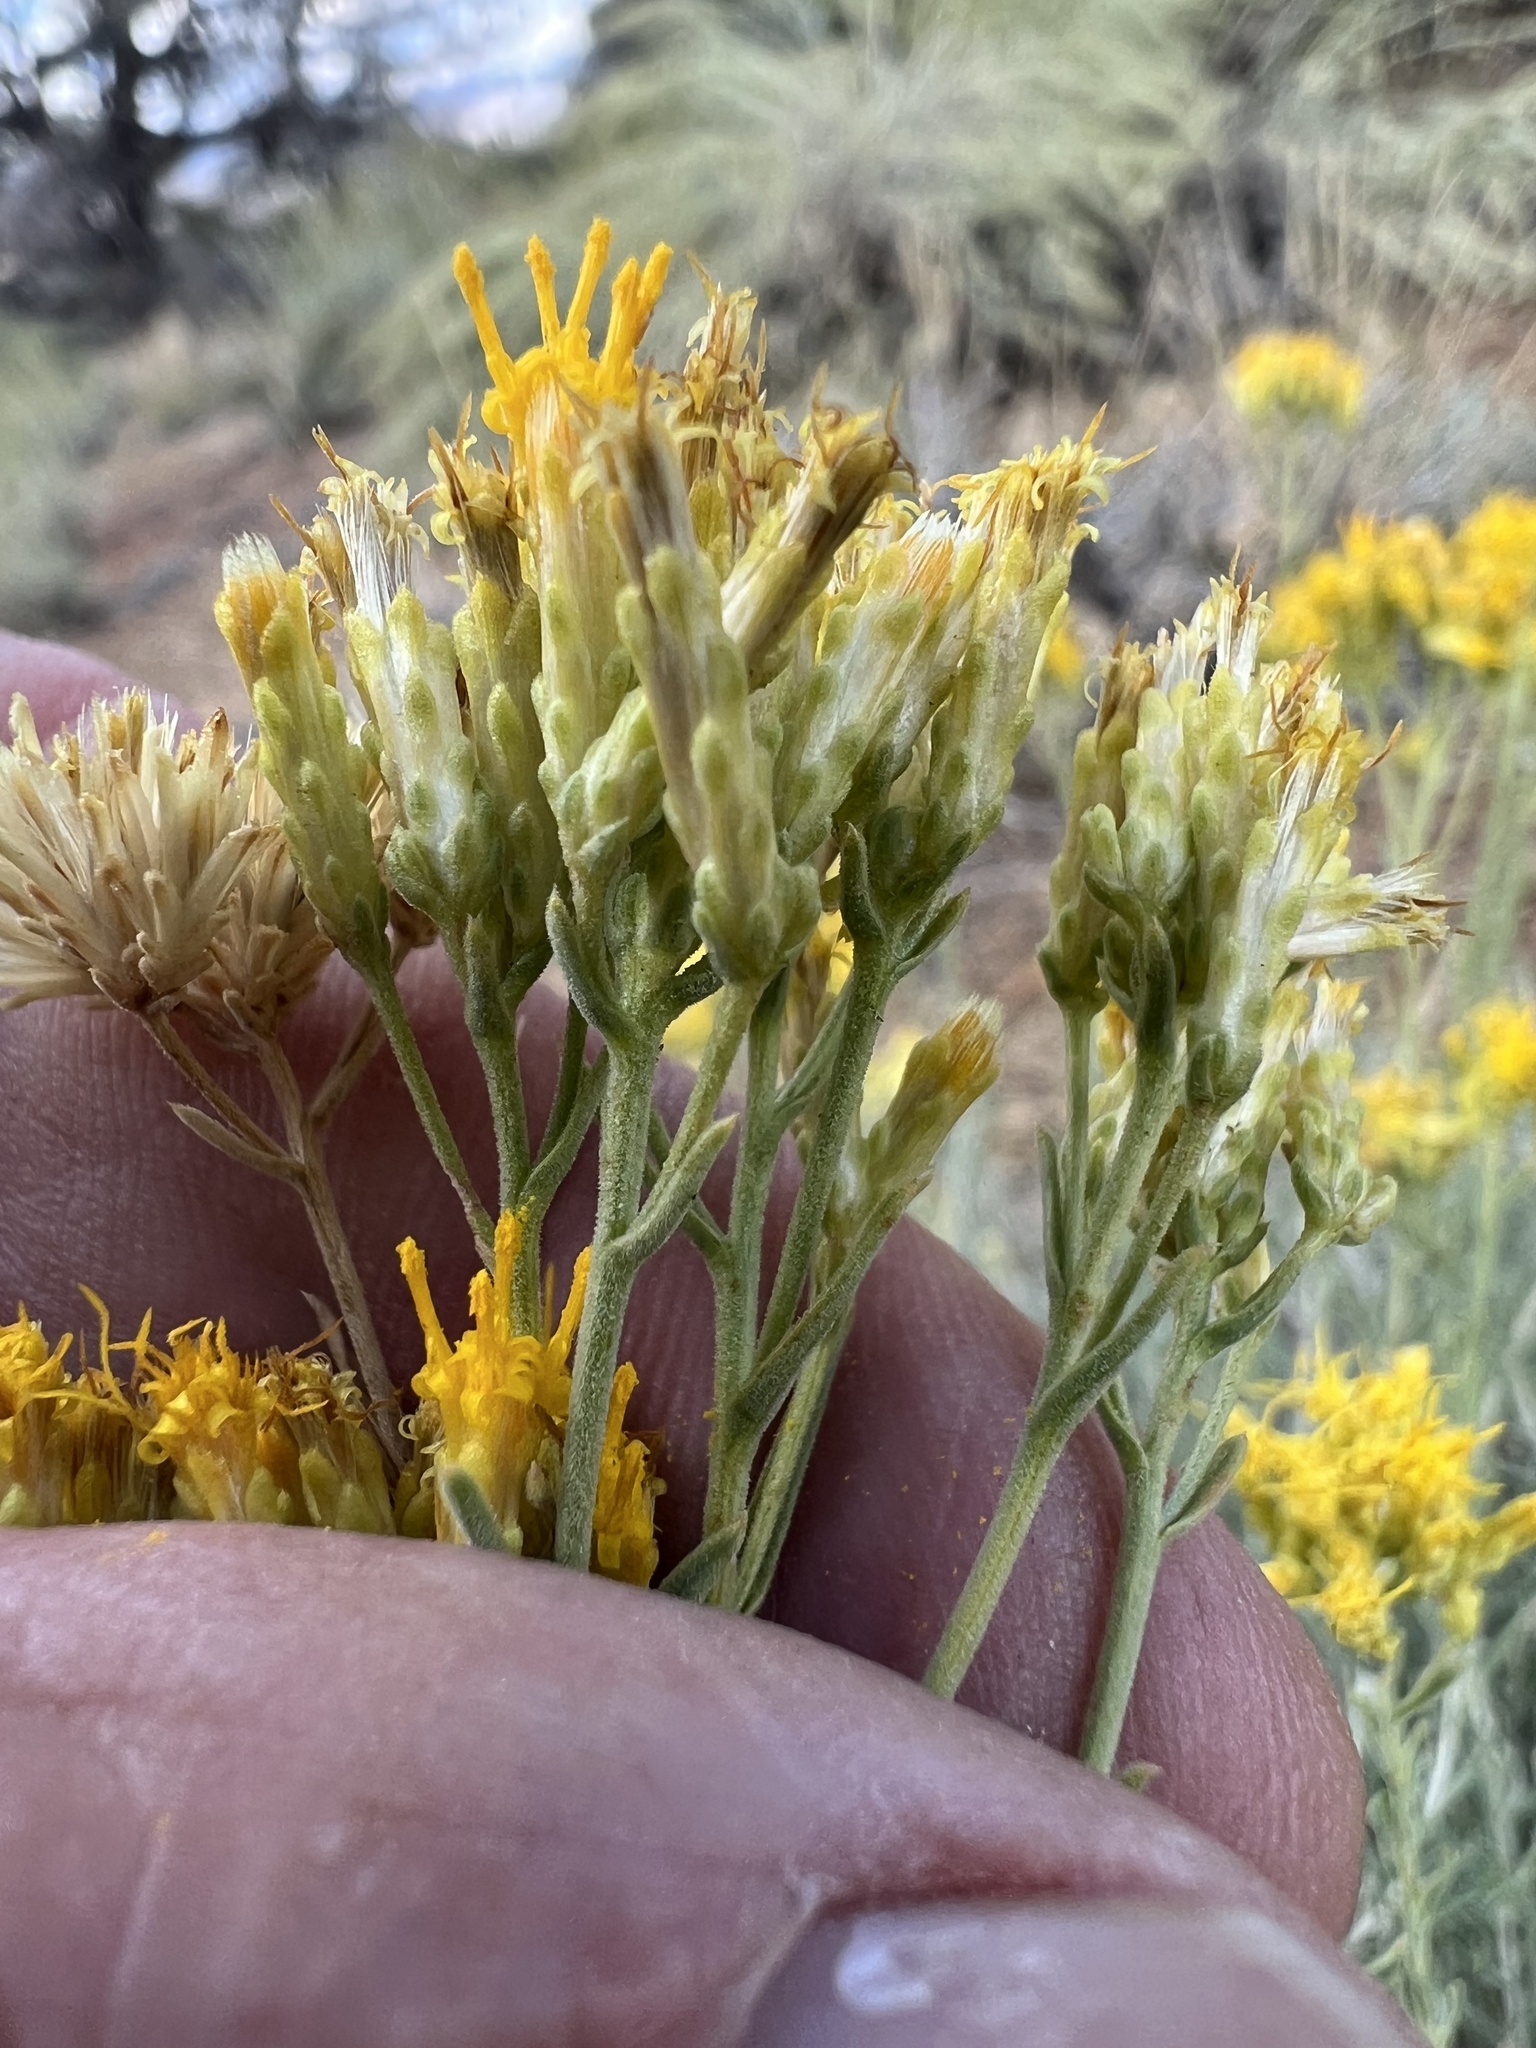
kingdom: Plantae
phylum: Tracheophyta
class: Magnoliopsida
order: Asterales
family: Asteraceae
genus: Chrysothamnus
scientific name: Chrysothamnus viscidiflorus
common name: Yellow rabbitbrush
